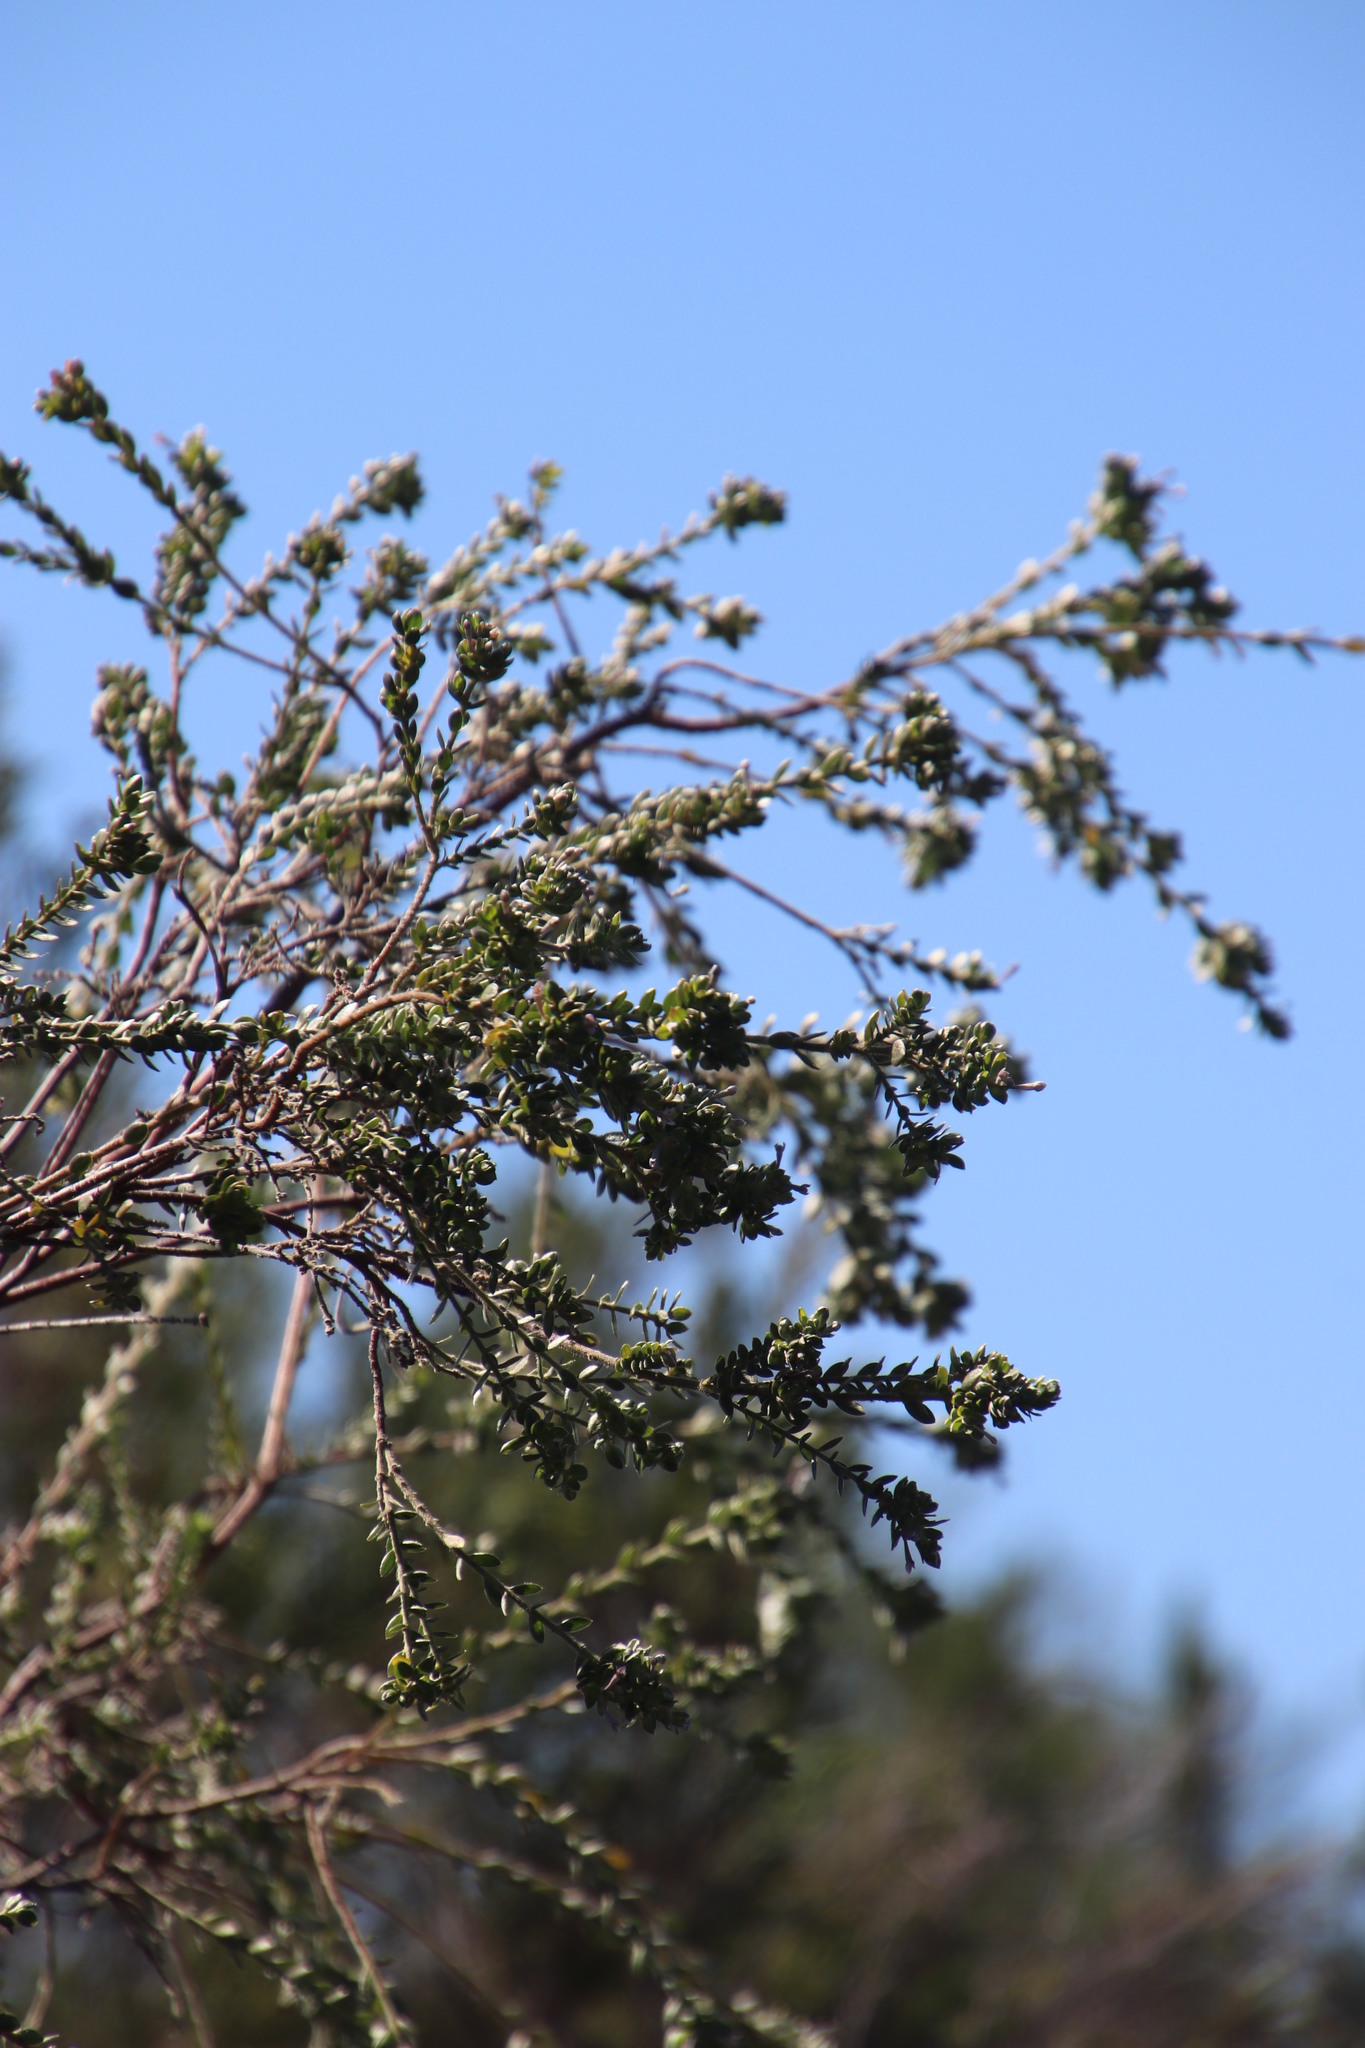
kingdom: Plantae
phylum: Tracheophyta
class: Magnoliopsida
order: Malvales
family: Thymelaeaceae
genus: Gnidia
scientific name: Gnidia sericea
